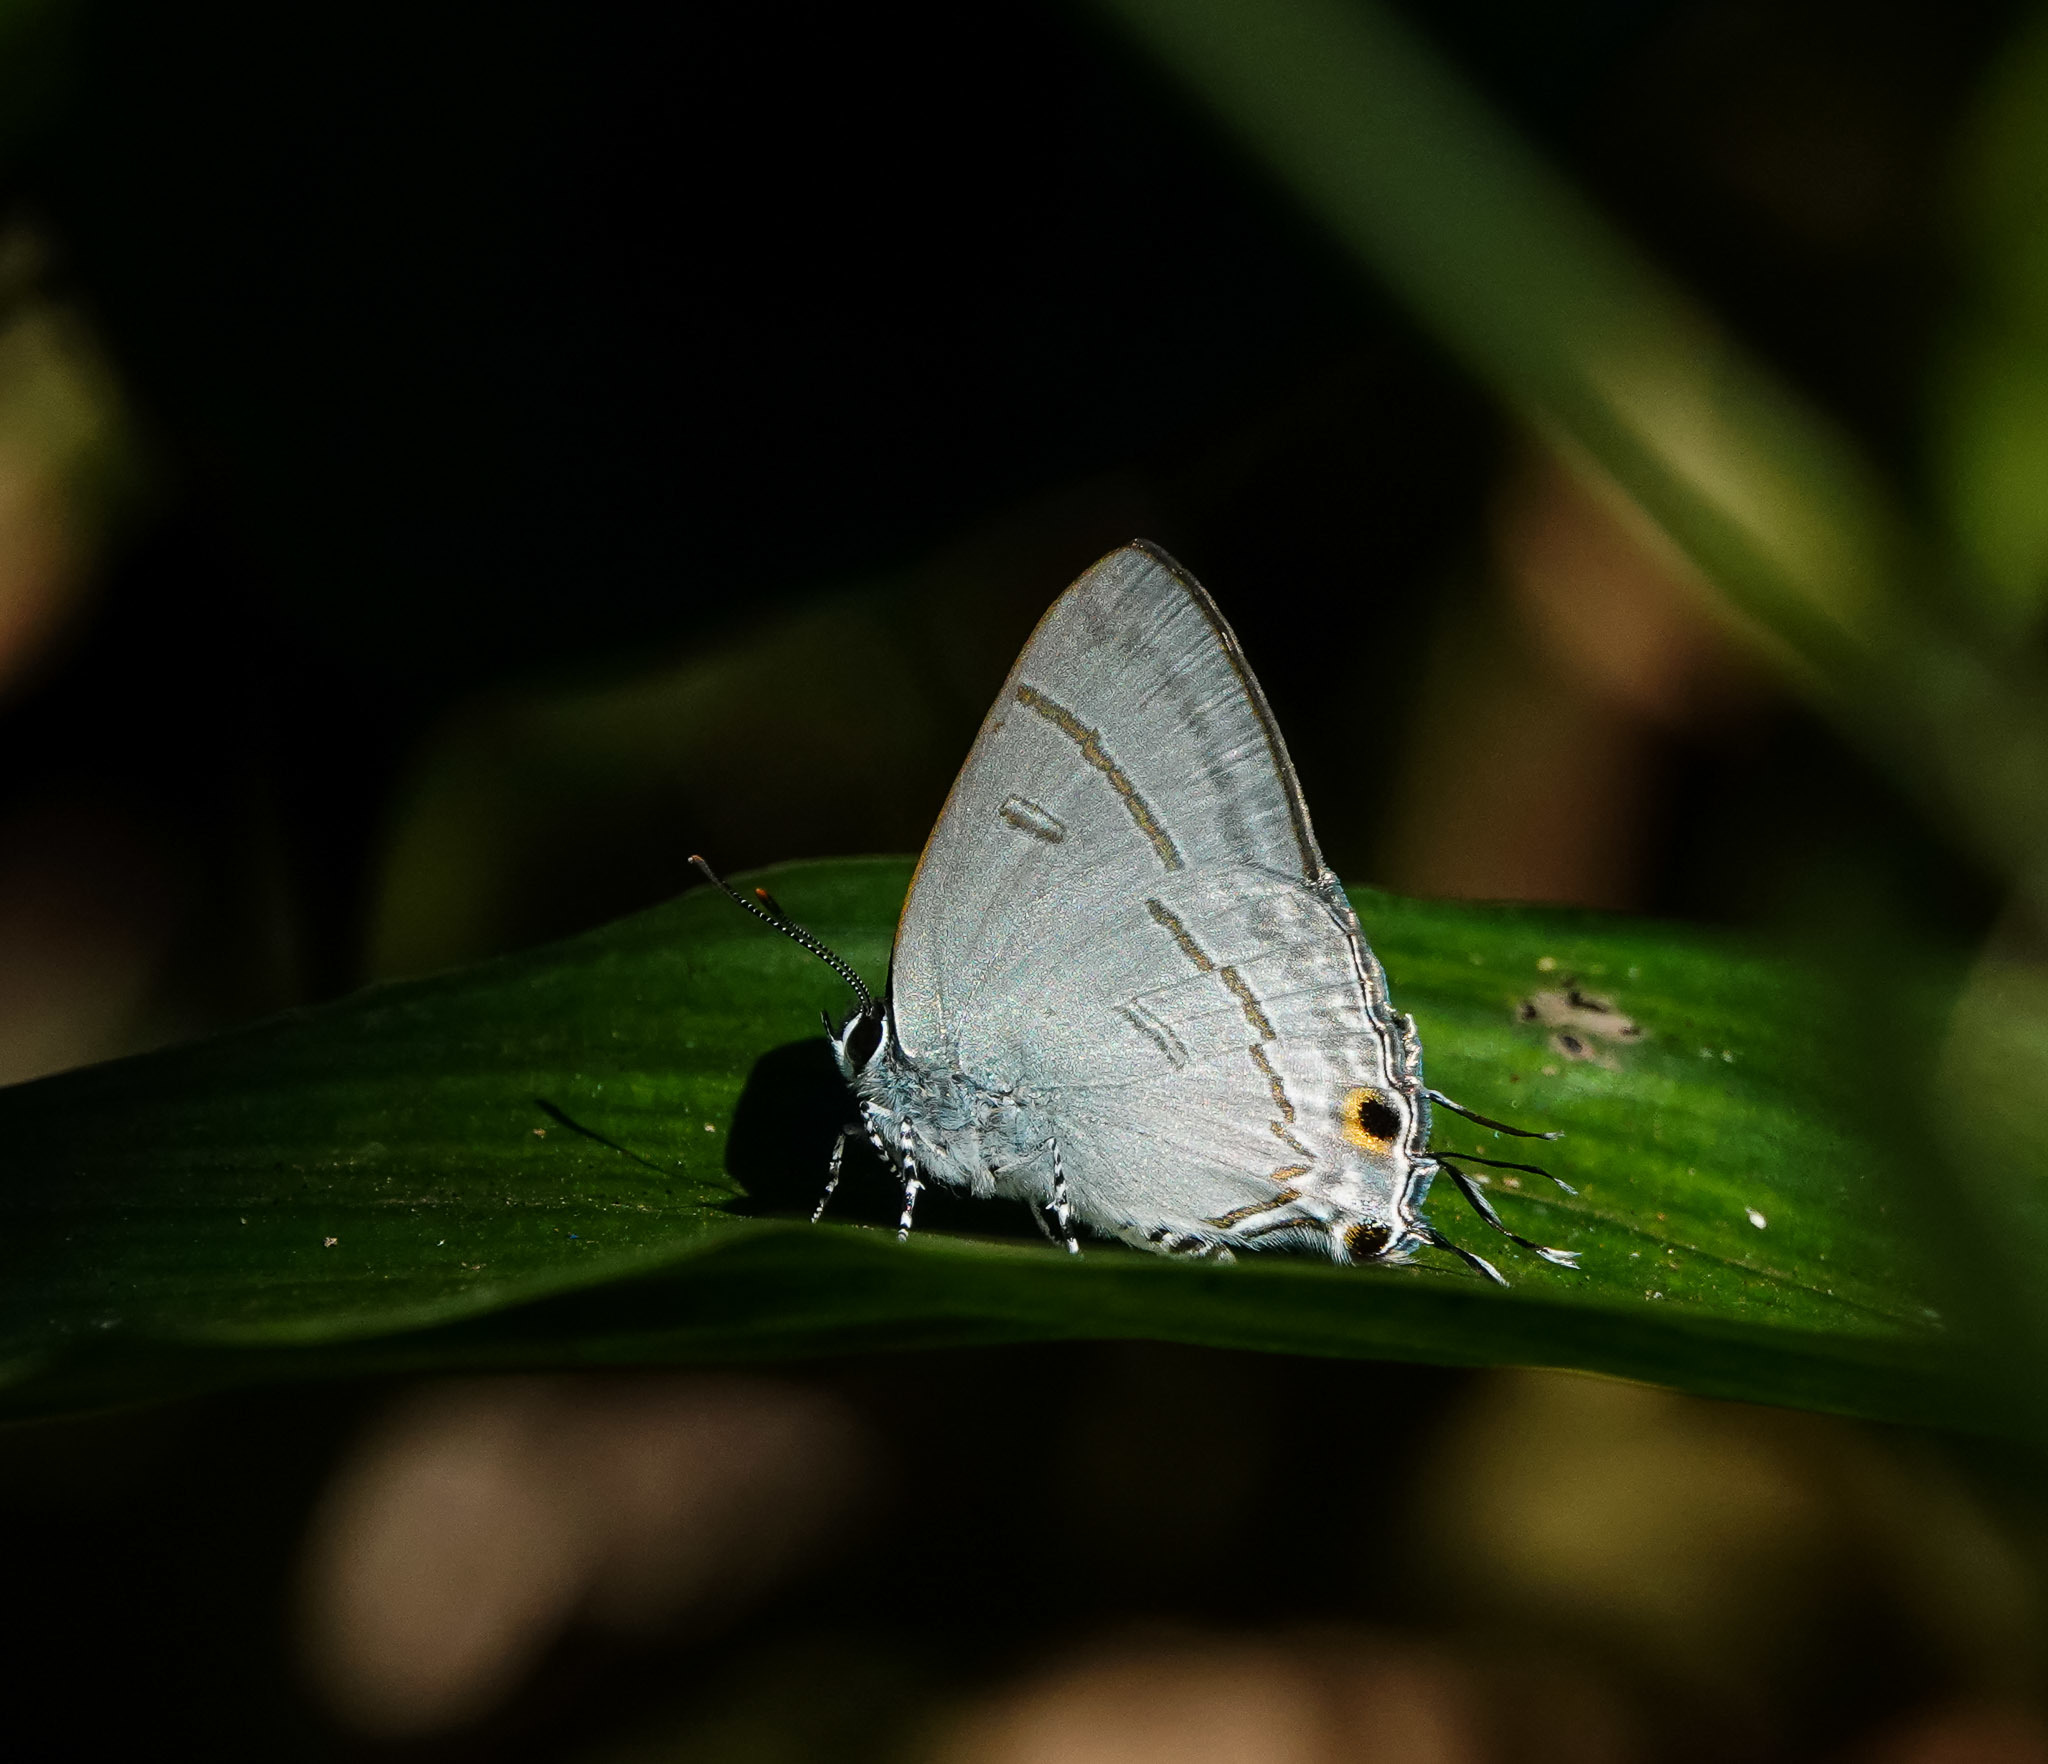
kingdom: Animalia
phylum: Arthropoda
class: Insecta
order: Lepidoptera
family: Lycaenidae
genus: Hypolycaena
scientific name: Hypolycaena erylus
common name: Common tit
